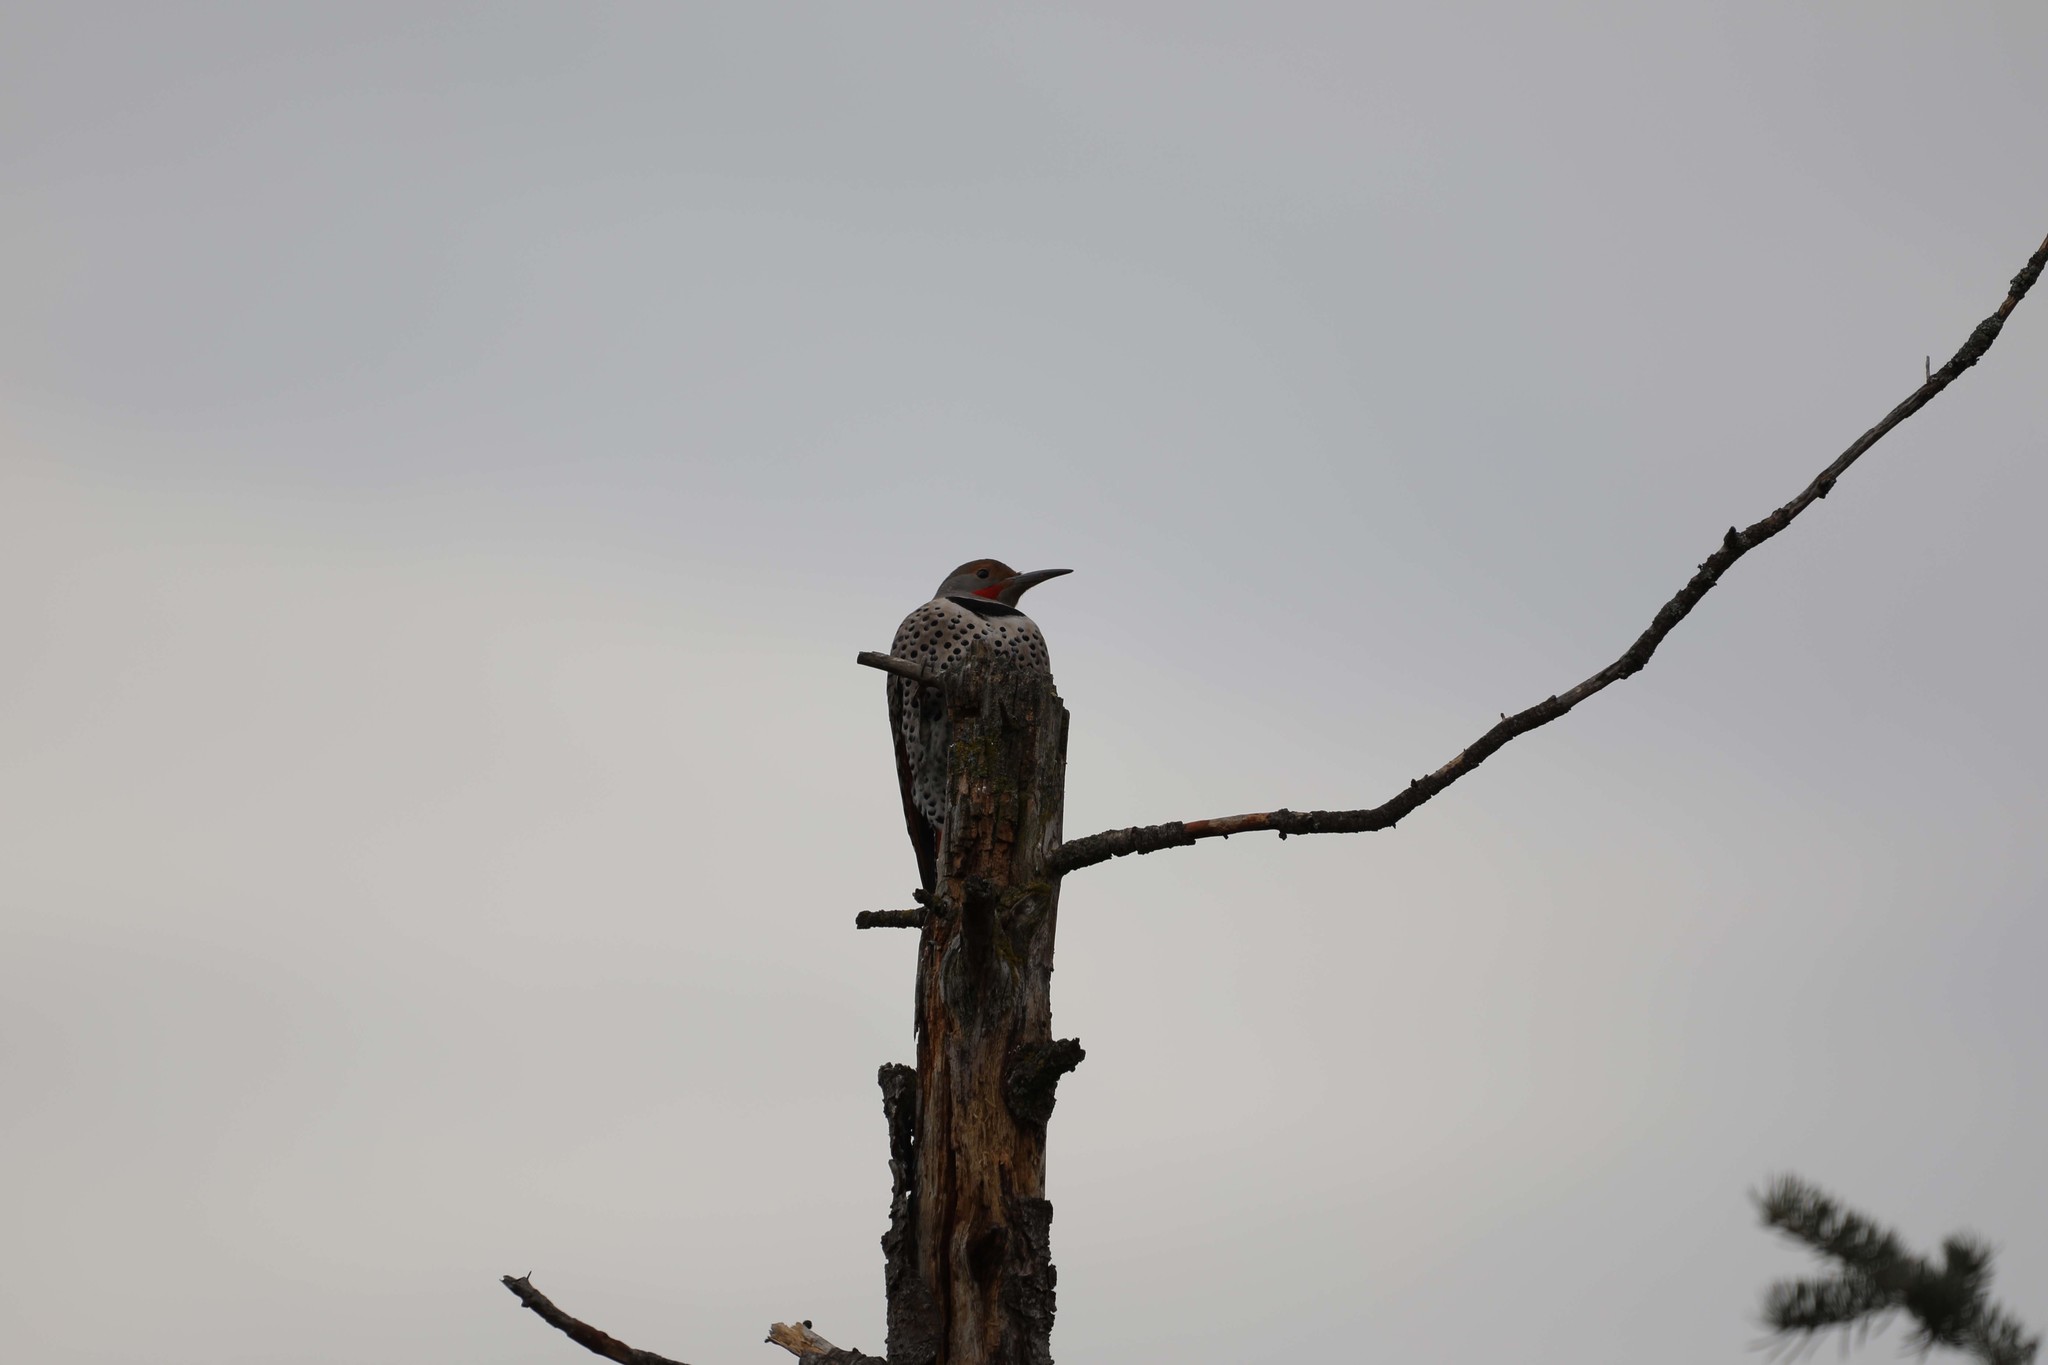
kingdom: Animalia
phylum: Chordata
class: Aves
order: Piciformes
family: Picidae
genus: Colaptes
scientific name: Colaptes auratus
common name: Northern flicker
